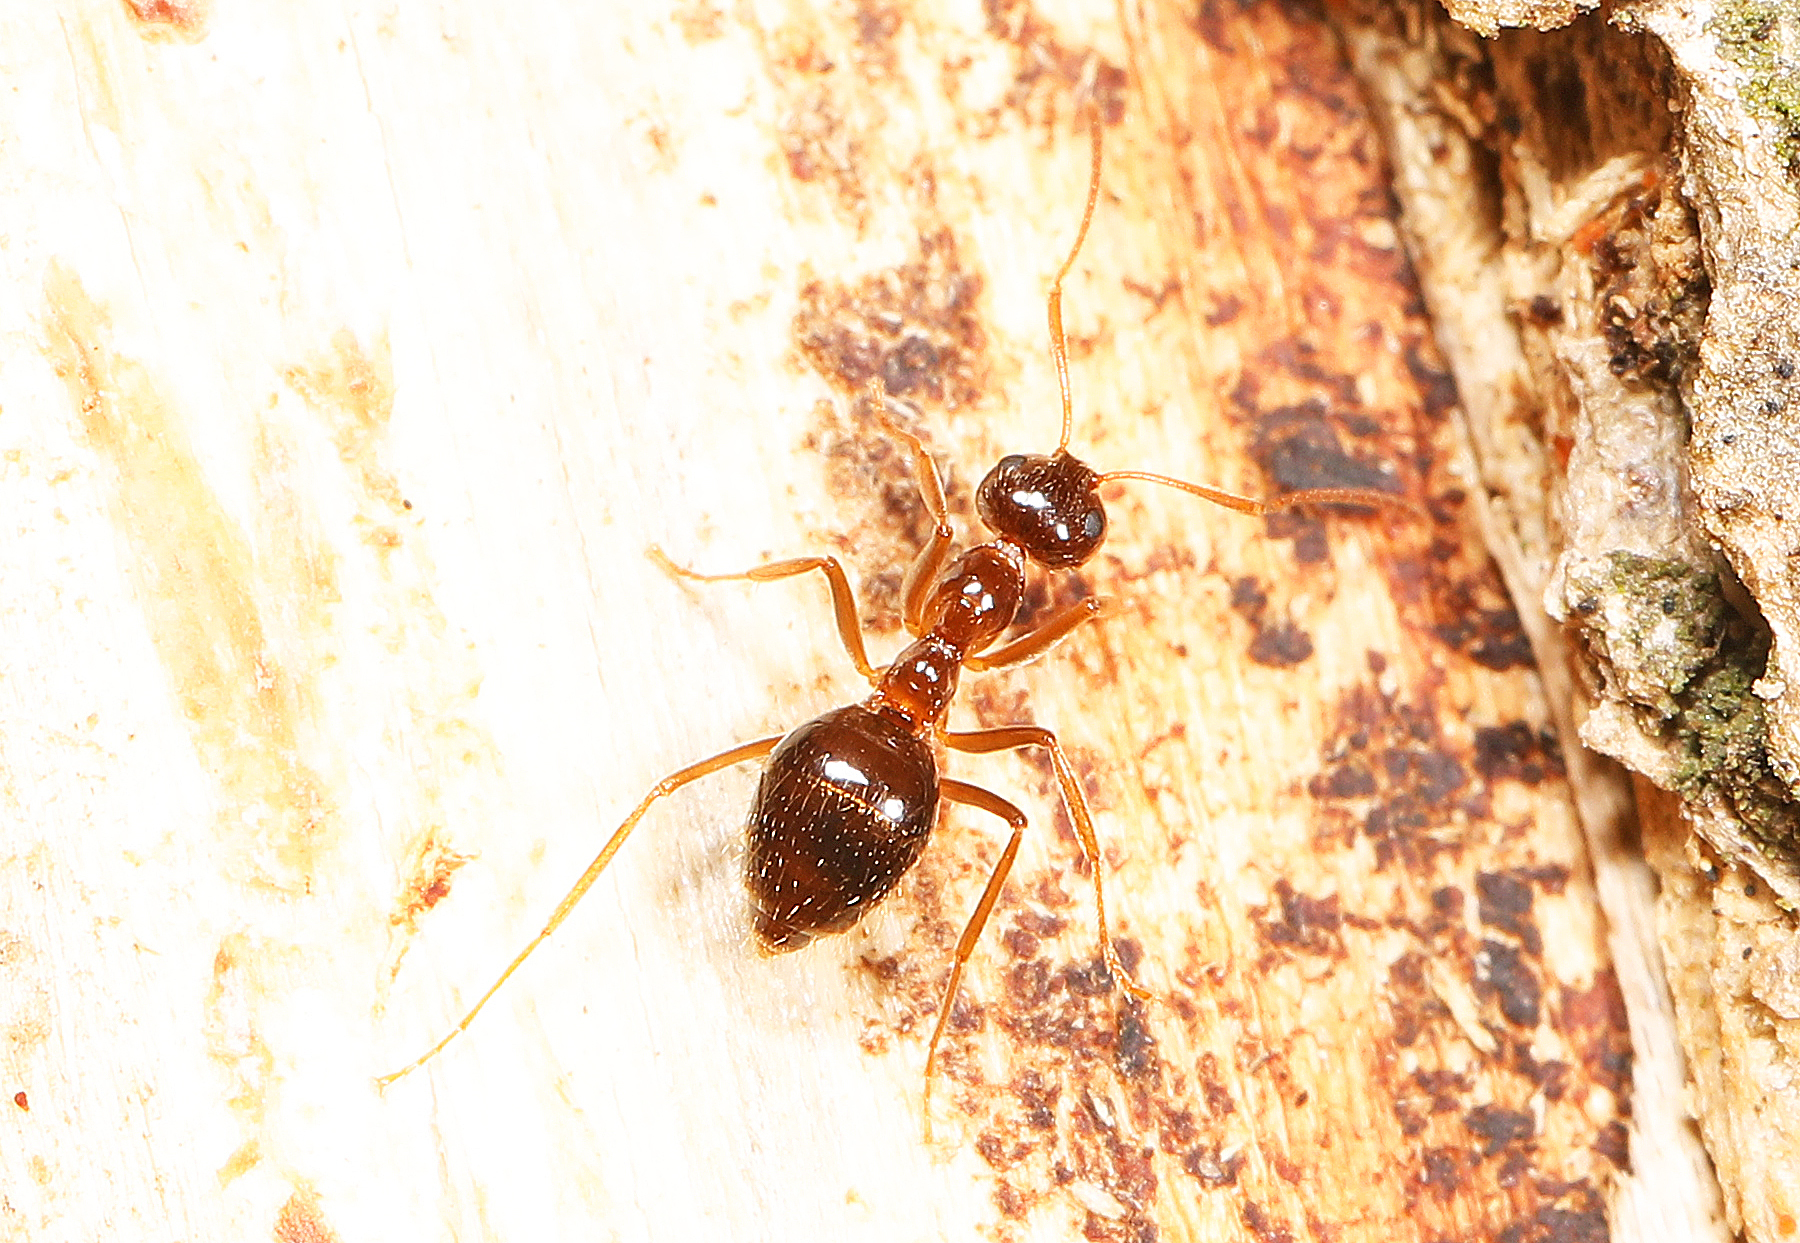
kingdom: Animalia
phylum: Arthropoda
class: Insecta
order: Hymenoptera
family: Formicidae
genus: Prenolepis
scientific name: Prenolepis imparis
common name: Small honey ant
